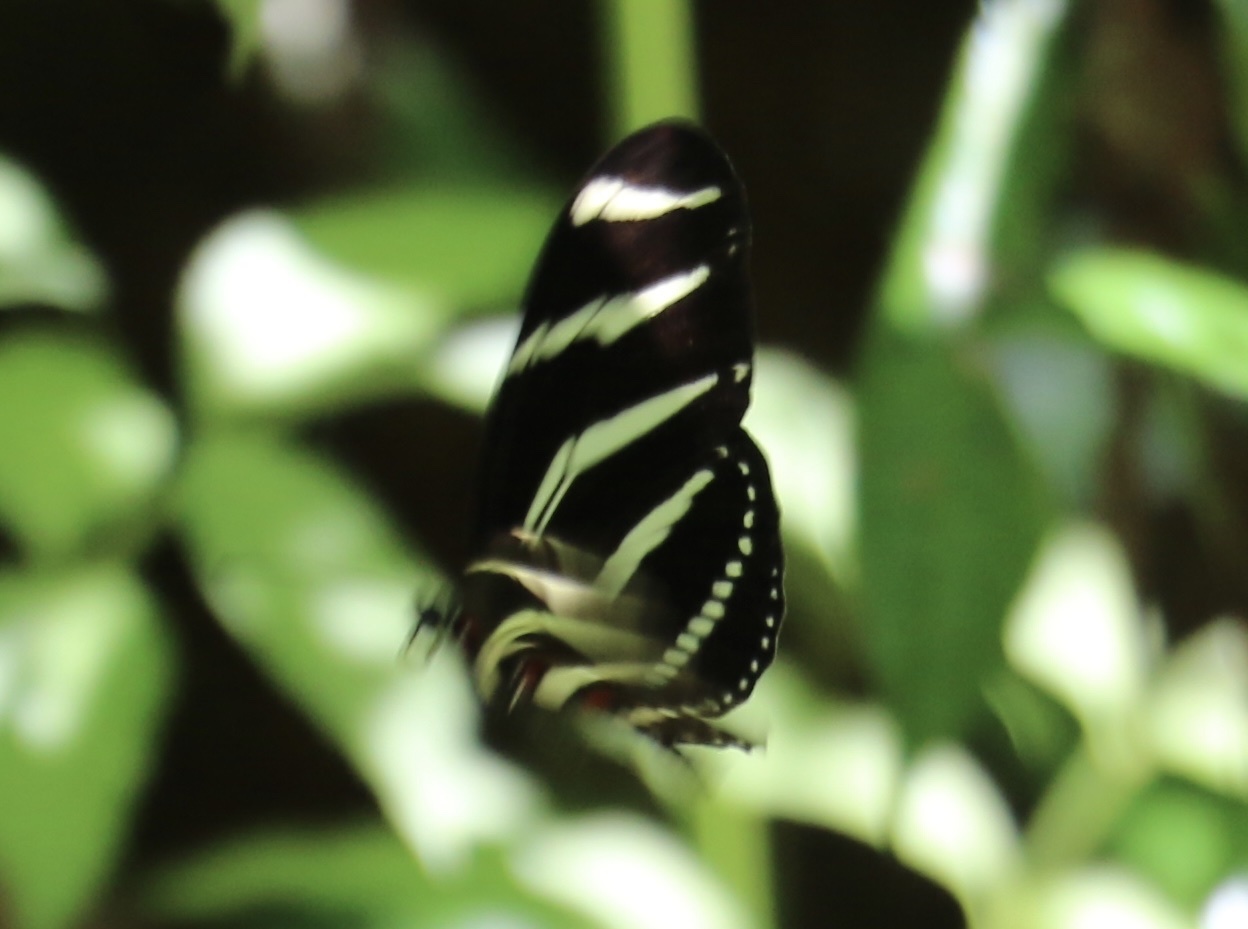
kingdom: Animalia
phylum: Arthropoda
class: Insecta
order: Lepidoptera
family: Nymphalidae
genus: Heliconius
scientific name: Heliconius charithonia
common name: Zebra long wing
